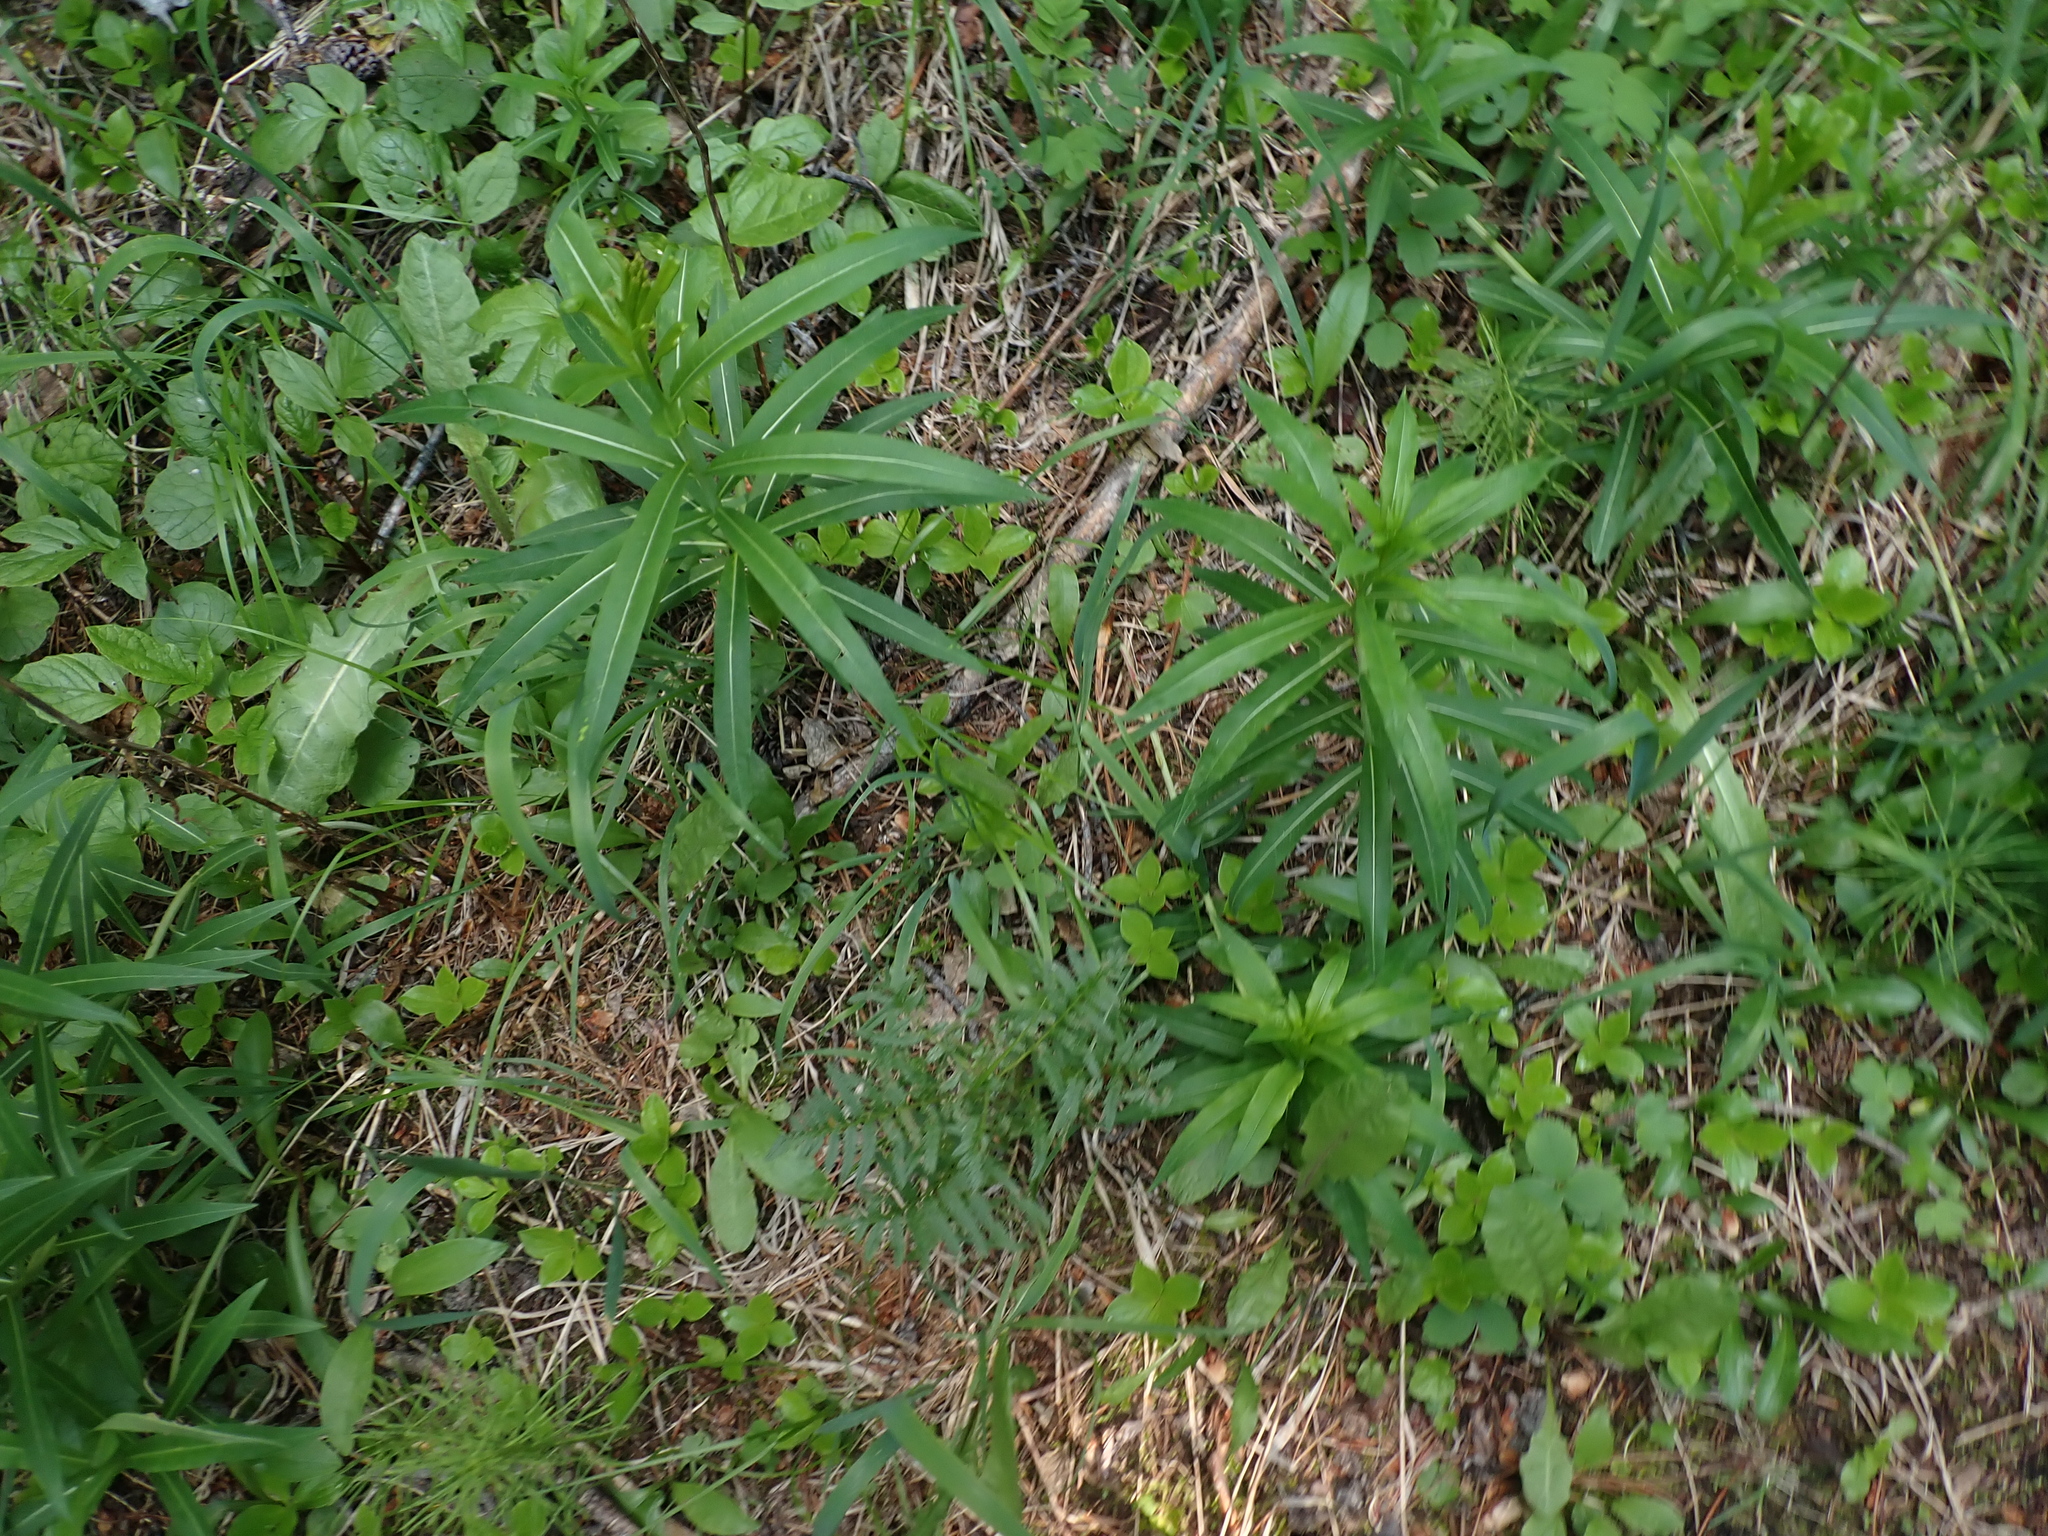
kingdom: Plantae
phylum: Tracheophyta
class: Magnoliopsida
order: Myrtales
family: Onagraceae
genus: Chamaenerion
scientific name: Chamaenerion angustifolium
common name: Fireweed
